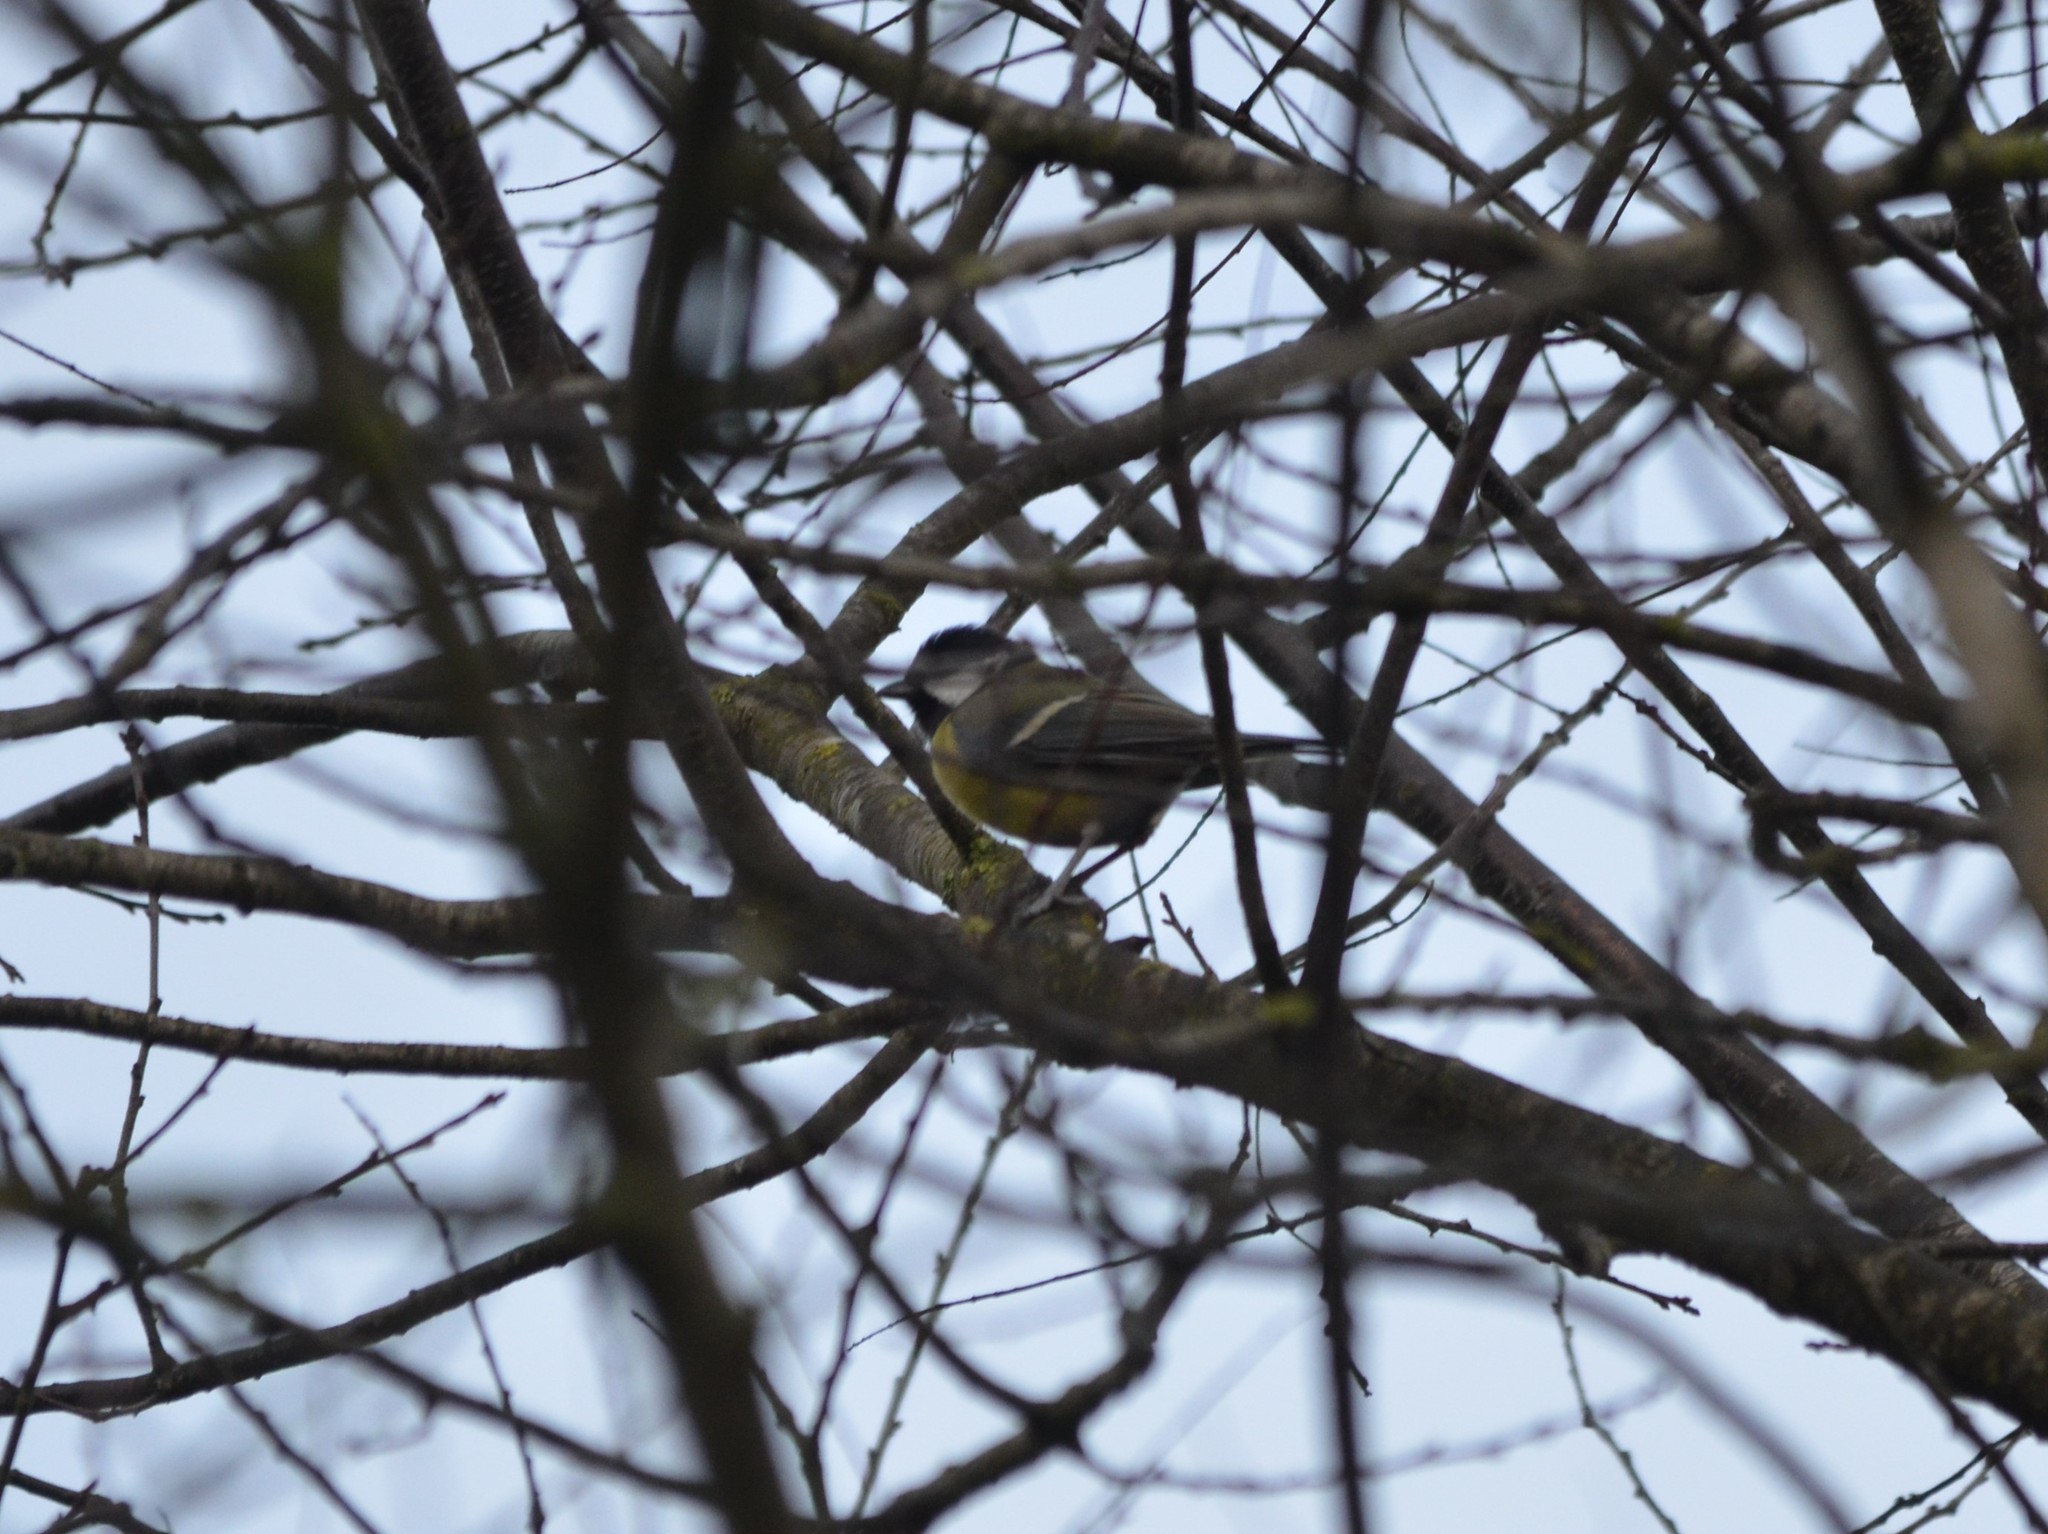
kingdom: Animalia
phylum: Chordata
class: Aves
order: Passeriformes
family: Paridae
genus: Parus
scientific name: Parus major
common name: Great tit
